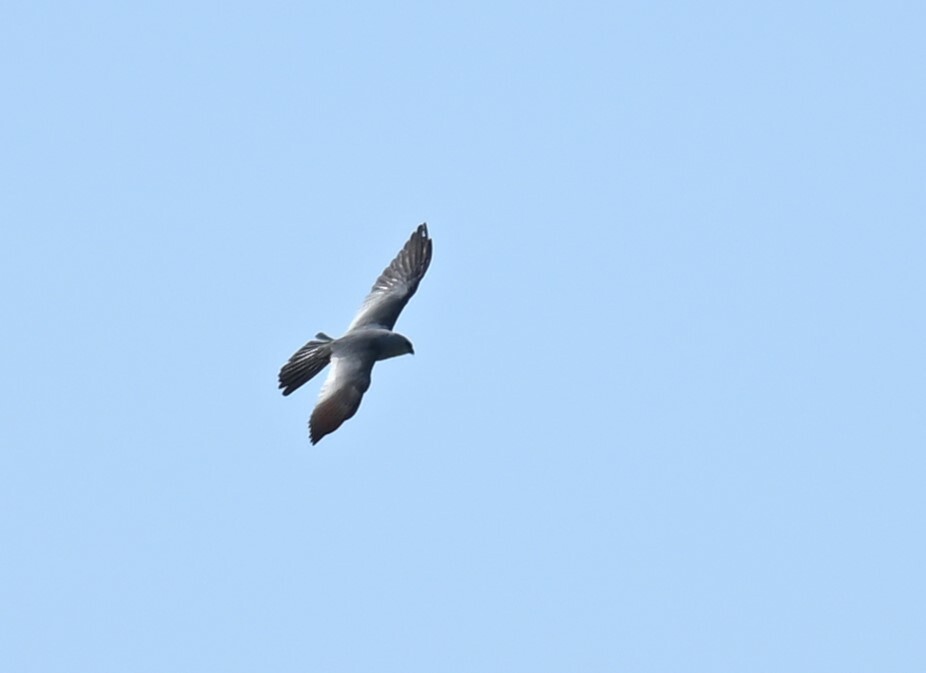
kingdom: Animalia
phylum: Chordata
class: Aves
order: Accipitriformes
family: Accipitridae
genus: Ictinia
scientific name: Ictinia mississippiensis
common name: Mississippi kite
